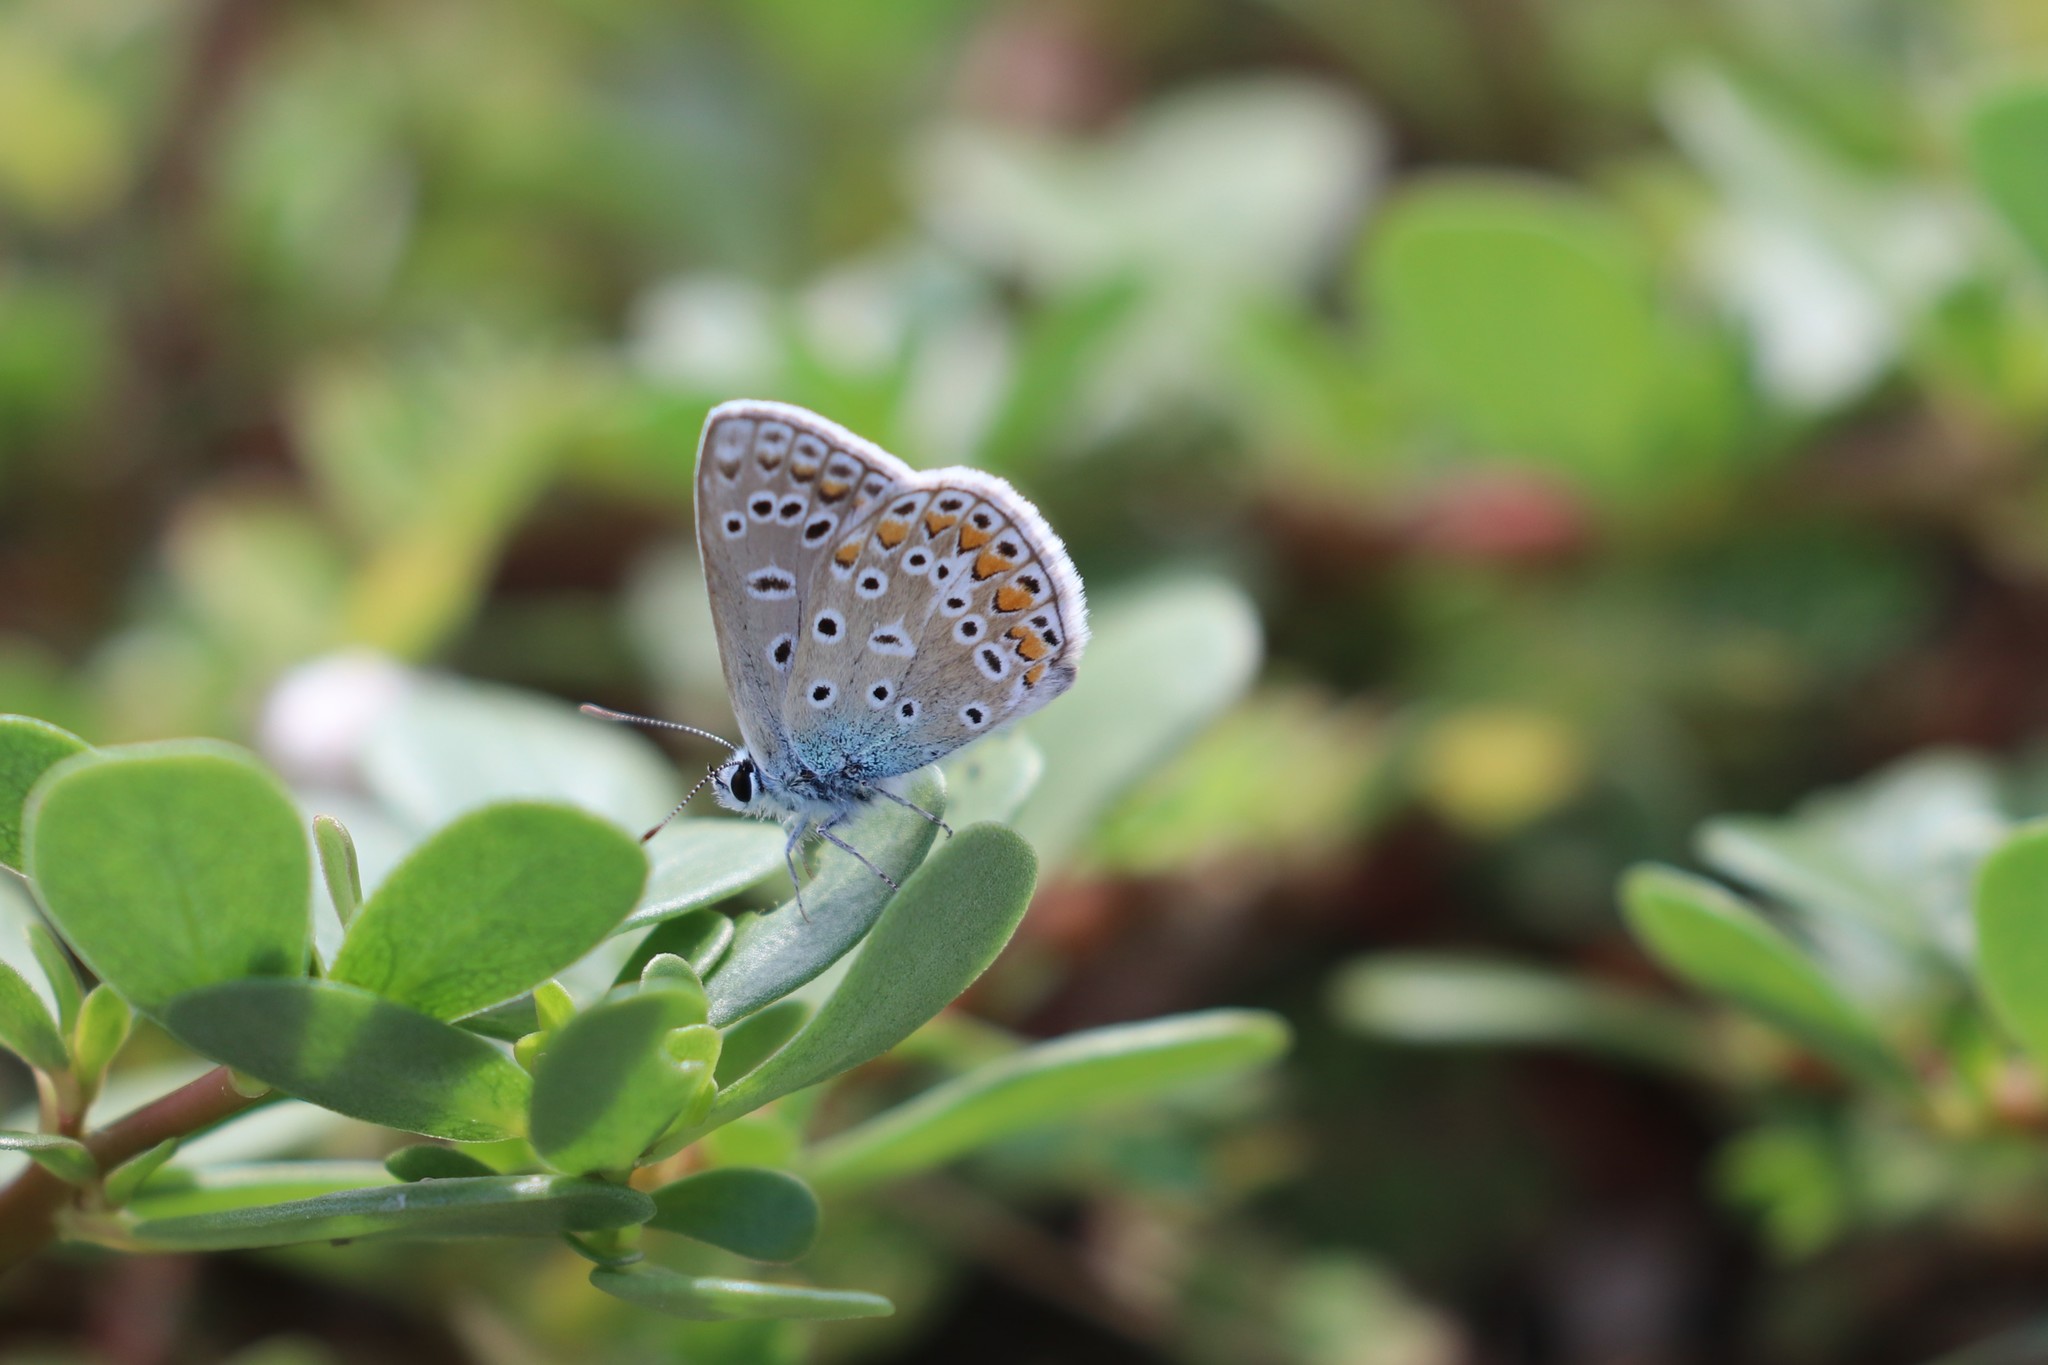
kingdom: Animalia
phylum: Arthropoda
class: Insecta
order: Lepidoptera
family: Lycaenidae
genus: Polyommatus
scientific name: Polyommatus icarus
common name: Common blue
